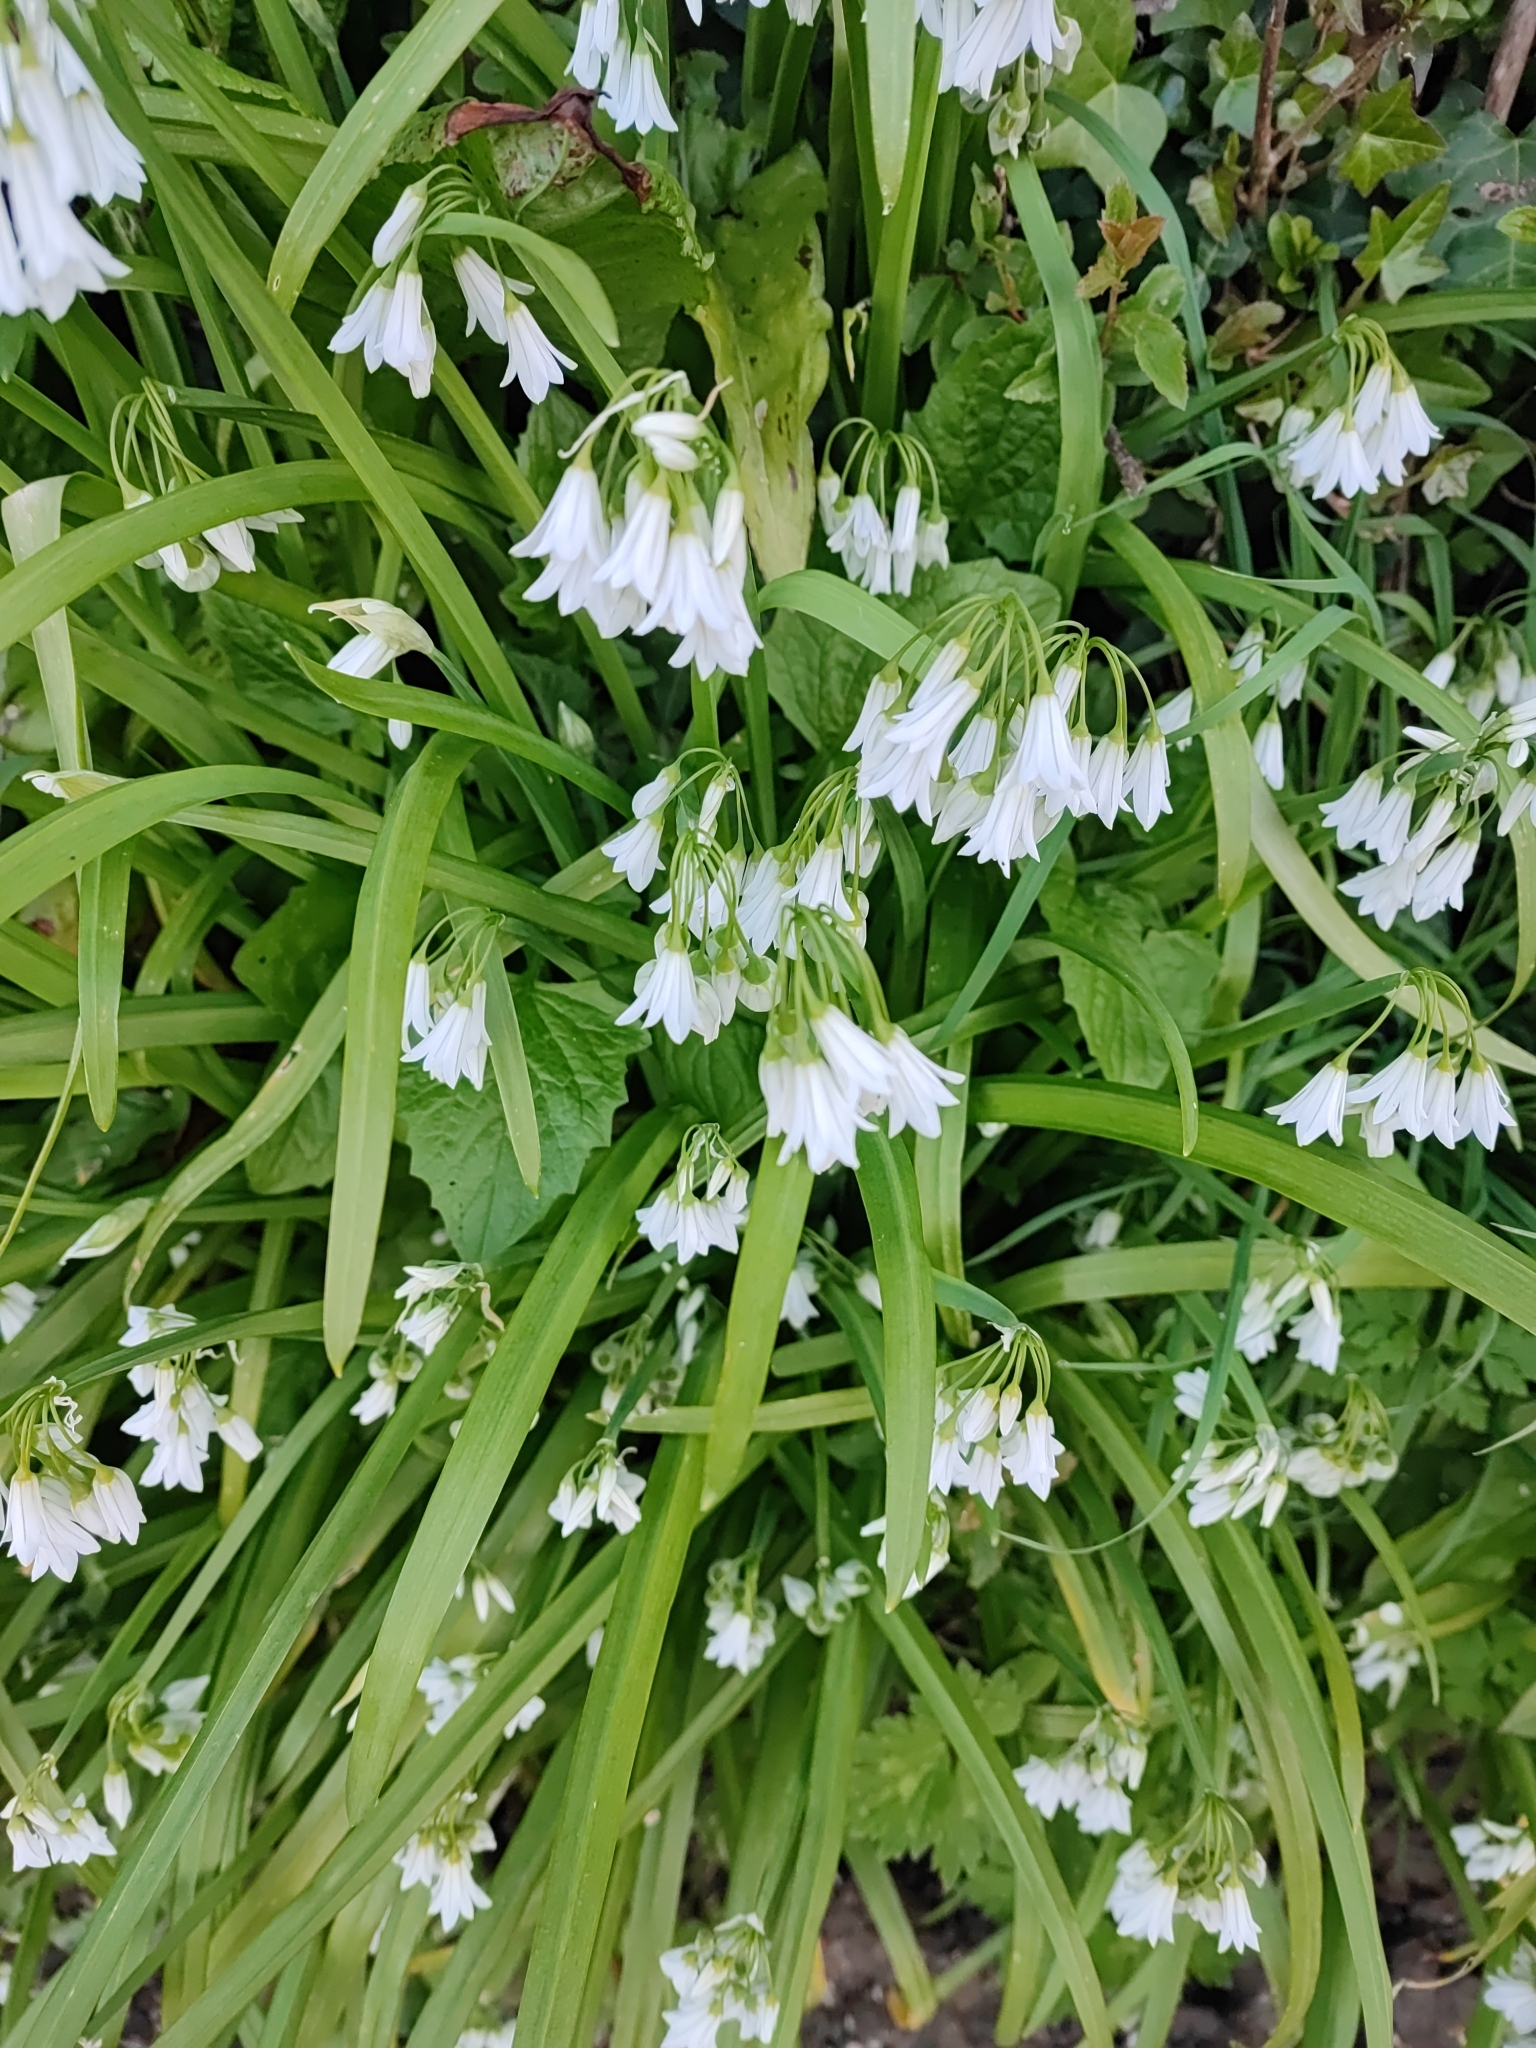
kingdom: Plantae
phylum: Tracheophyta
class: Liliopsida
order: Asparagales
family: Amaryllidaceae
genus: Allium
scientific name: Allium triquetrum
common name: Three-cornered garlic
